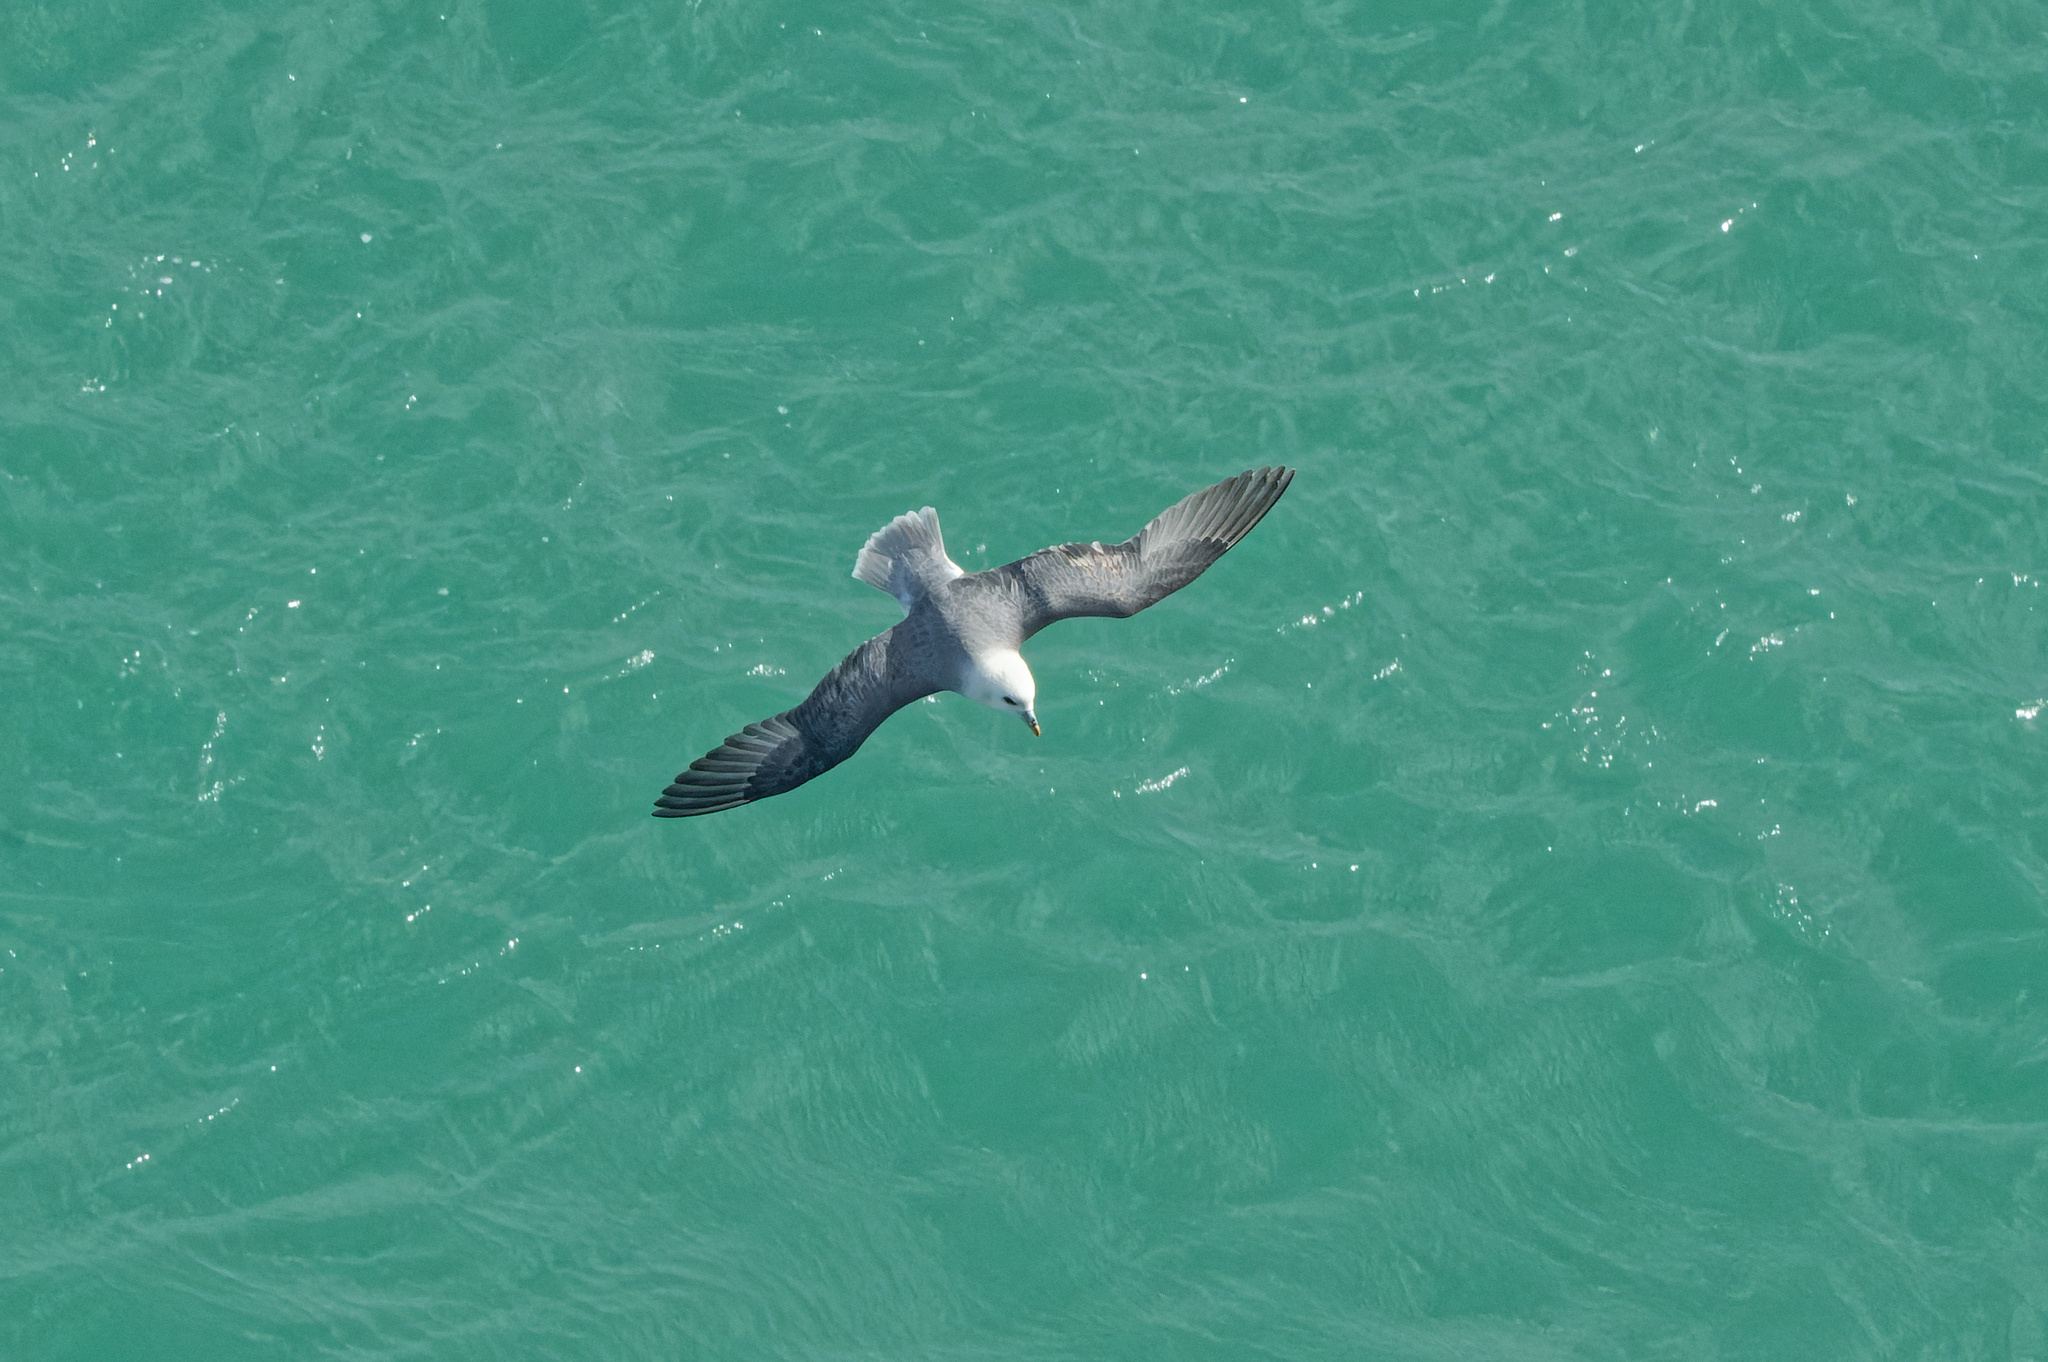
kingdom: Animalia
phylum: Chordata
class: Aves
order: Procellariiformes
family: Procellariidae
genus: Fulmarus
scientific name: Fulmarus glacialis
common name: Northern fulmar
